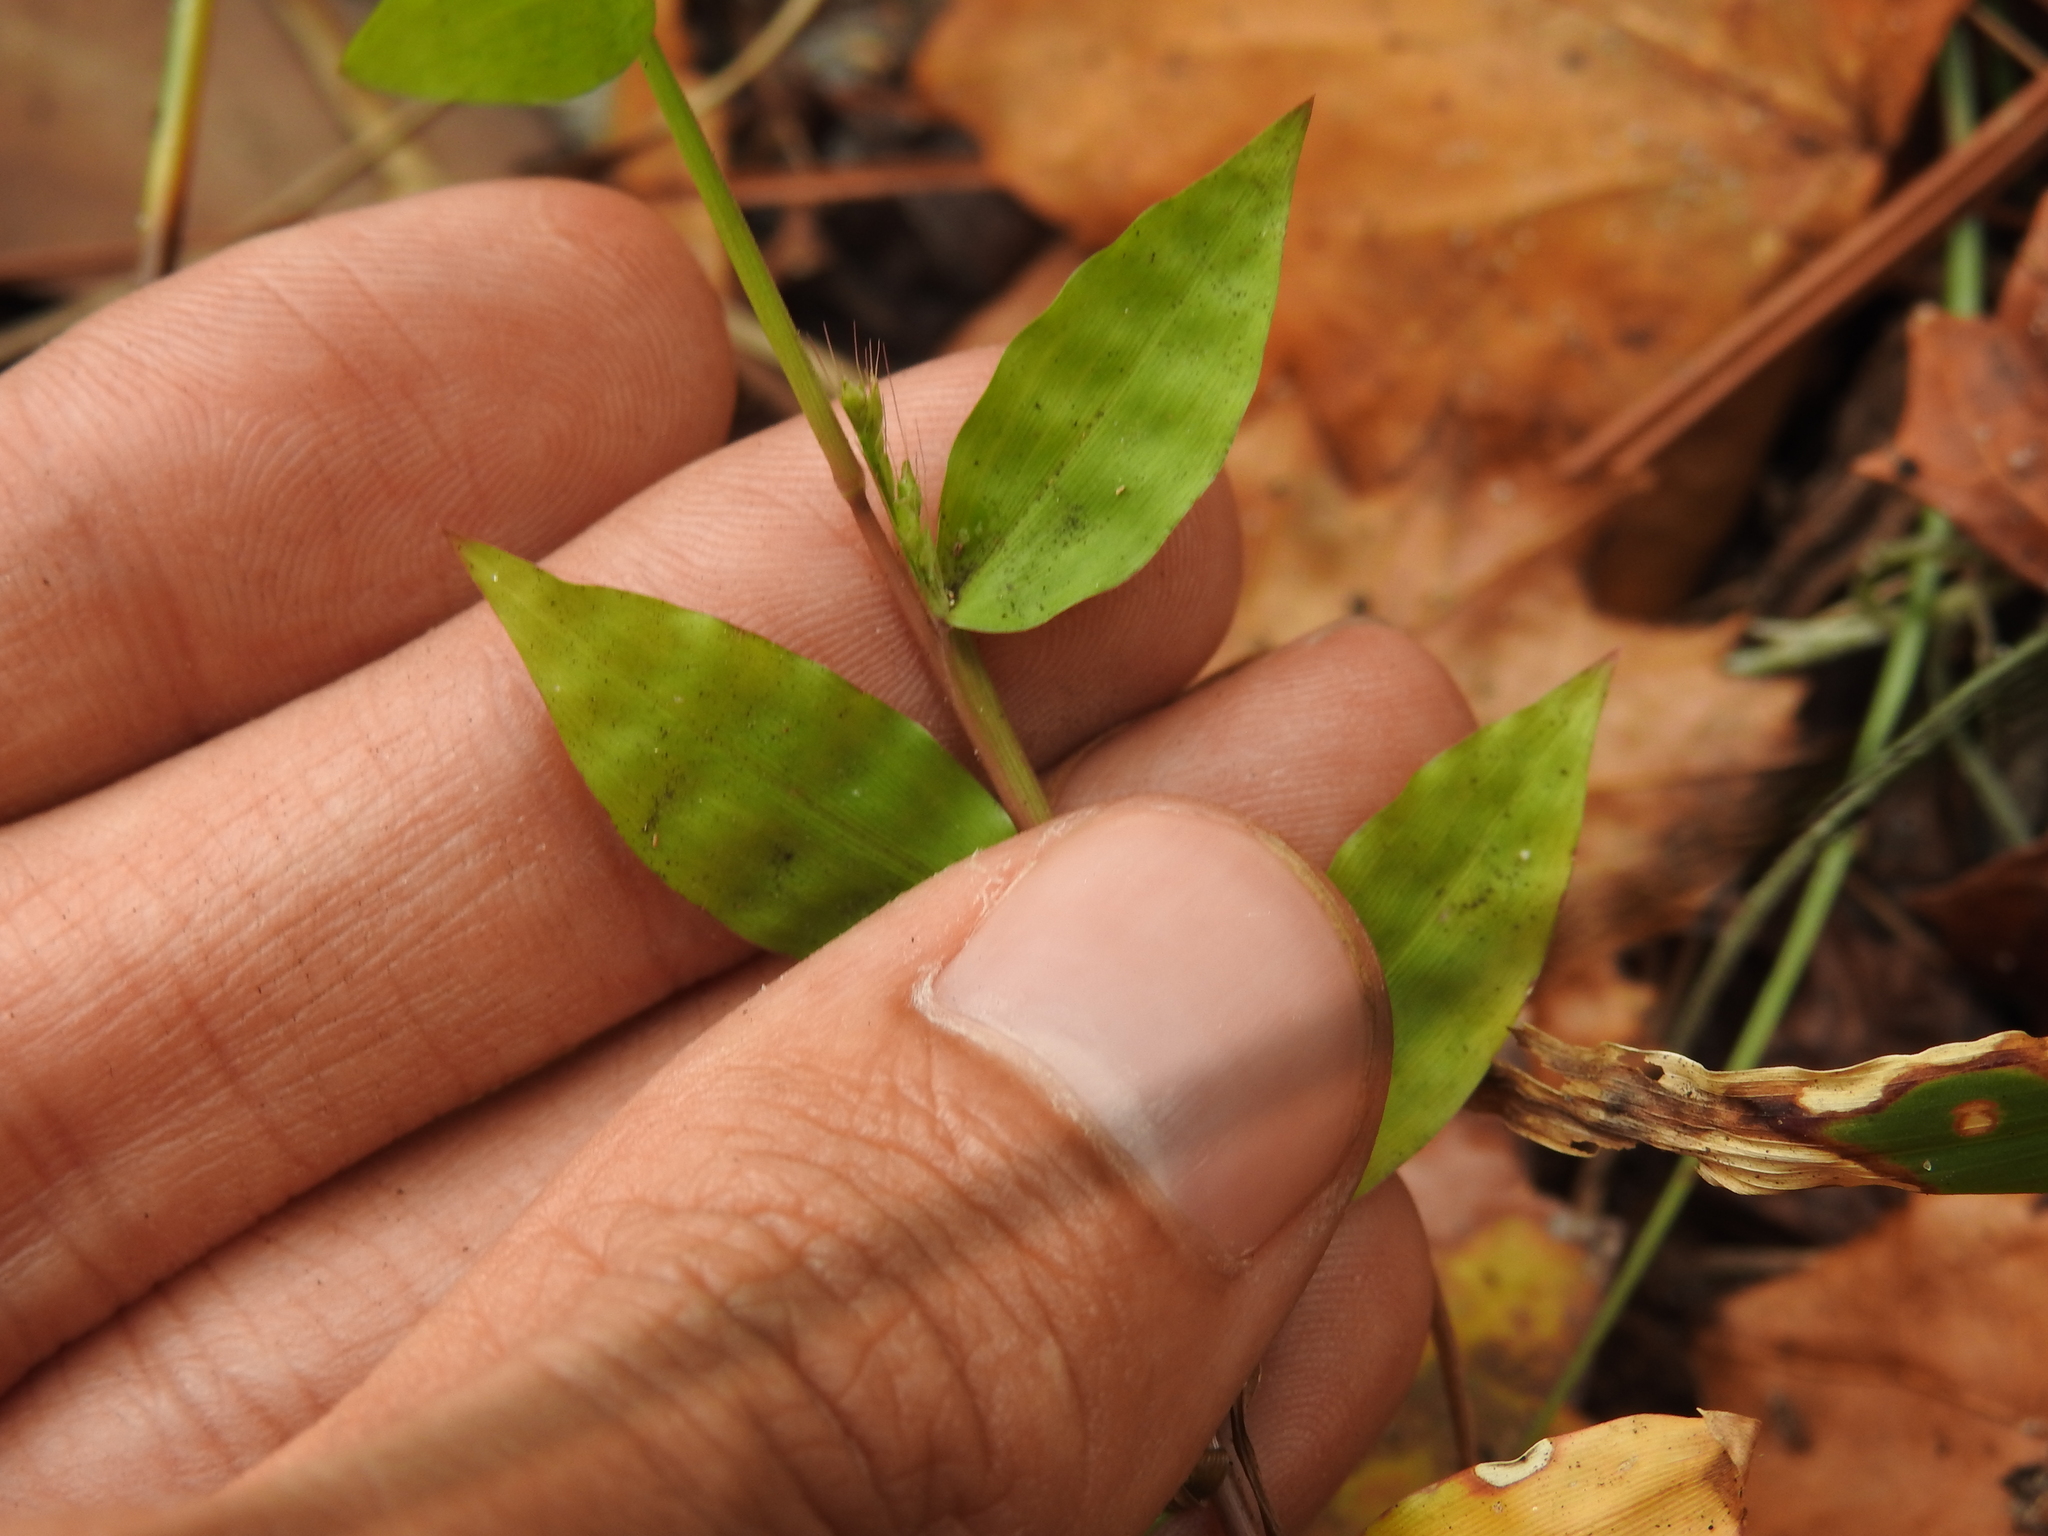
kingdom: Plantae
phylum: Tracheophyta
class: Liliopsida
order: Poales
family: Poaceae
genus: Oplismenus
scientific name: Oplismenus compositus
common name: Running mountain grass
